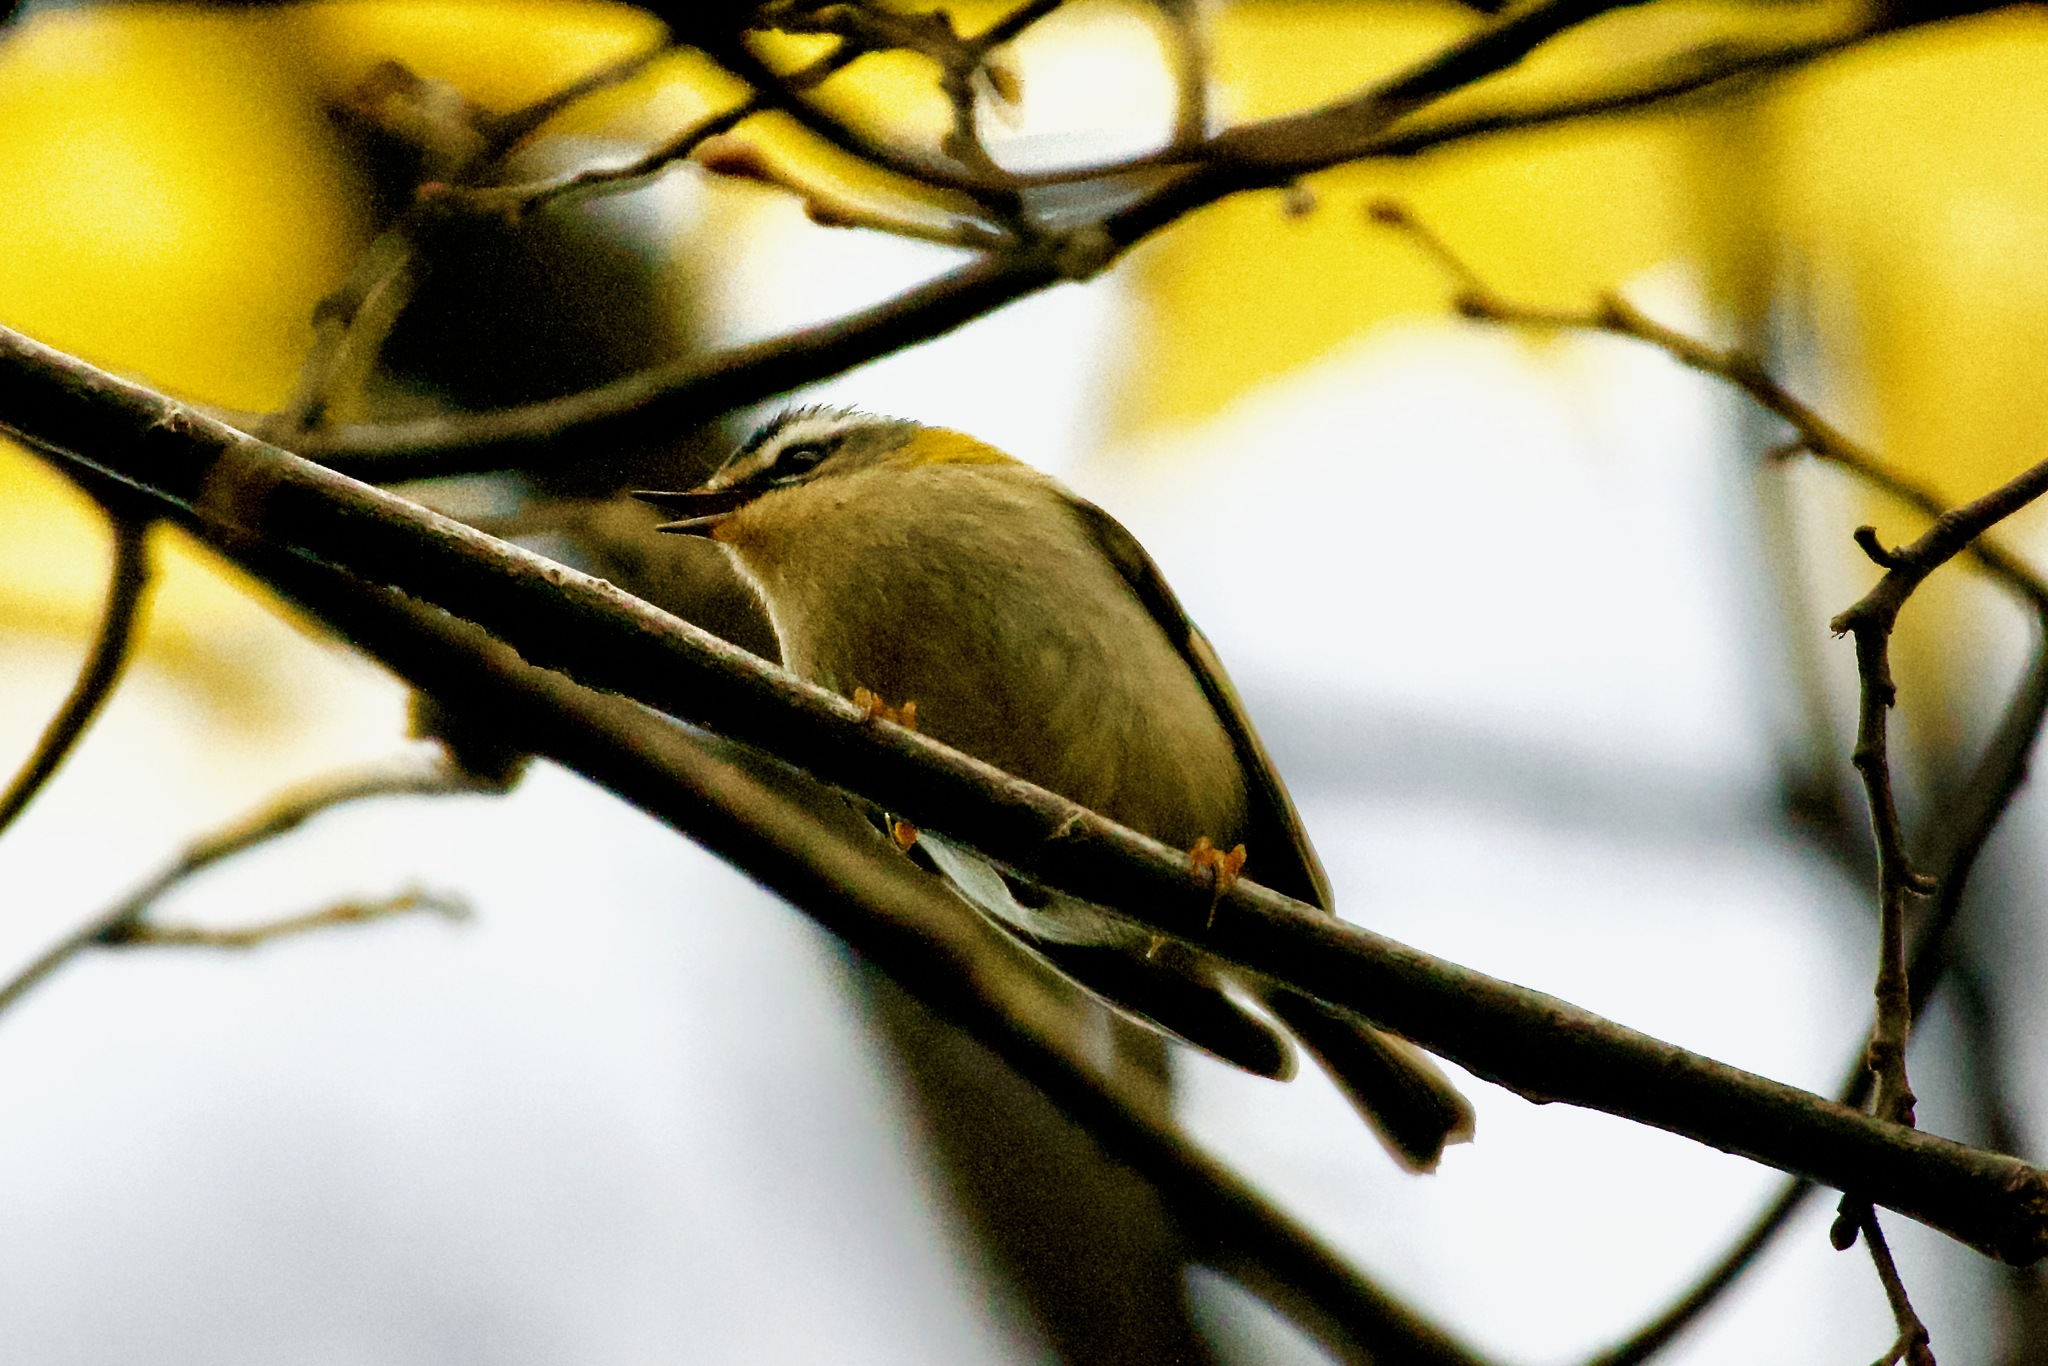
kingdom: Animalia
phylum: Chordata
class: Aves
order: Passeriformes
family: Regulidae
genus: Regulus
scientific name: Regulus ignicapilla
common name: Firecrest
